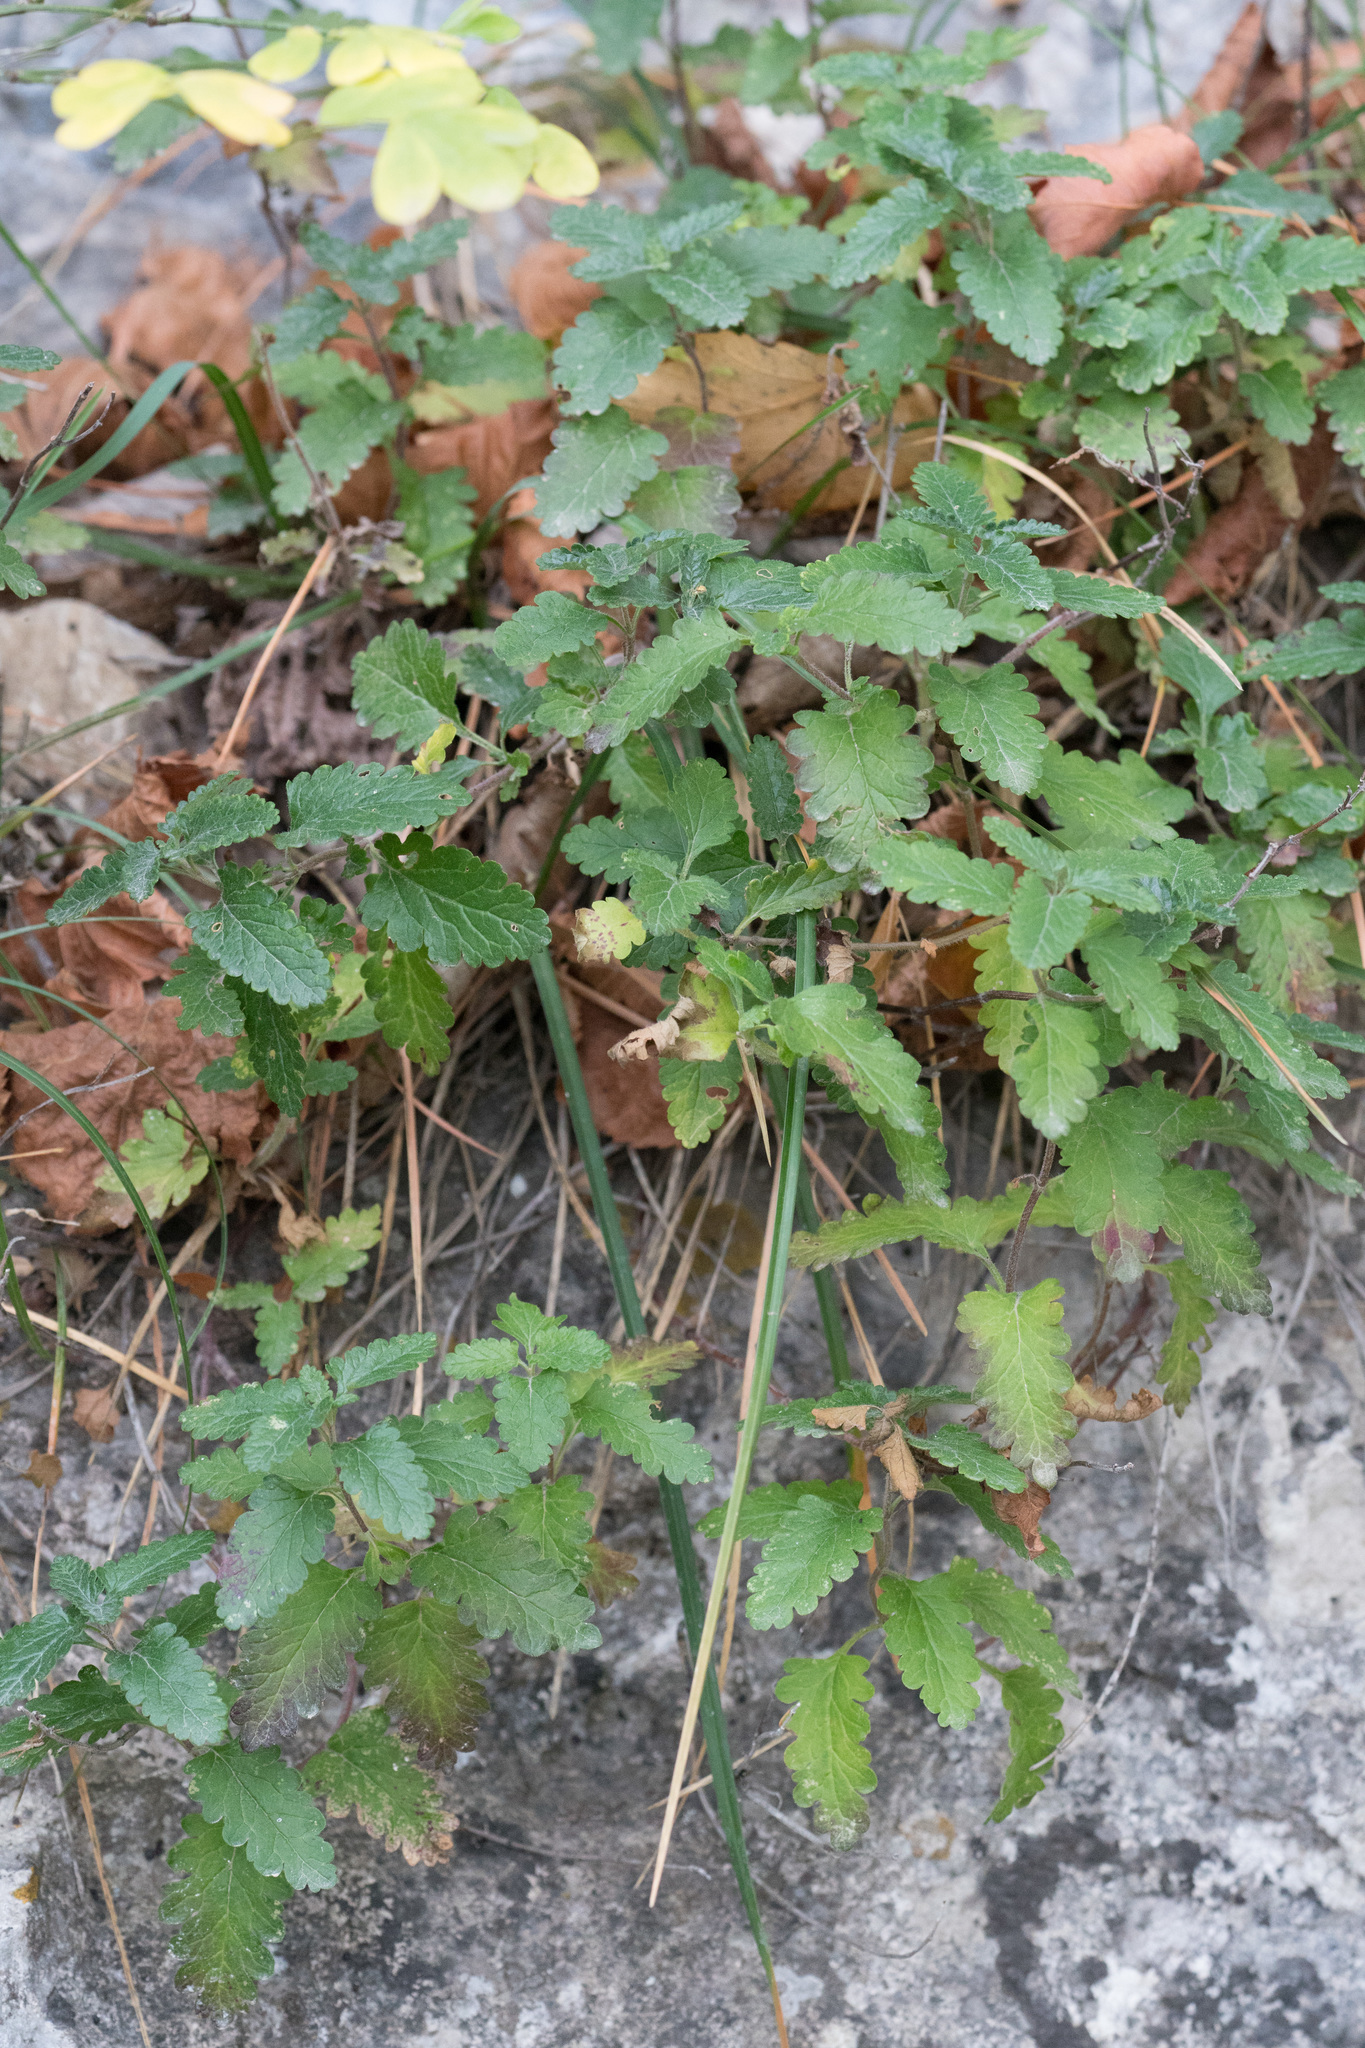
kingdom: Plantae
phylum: Tracheophyta
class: Magnoliopsida
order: Lamiales
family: Lamiaceae
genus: Teucrium
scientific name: Teucrium chamaedrys
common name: Wall germander
